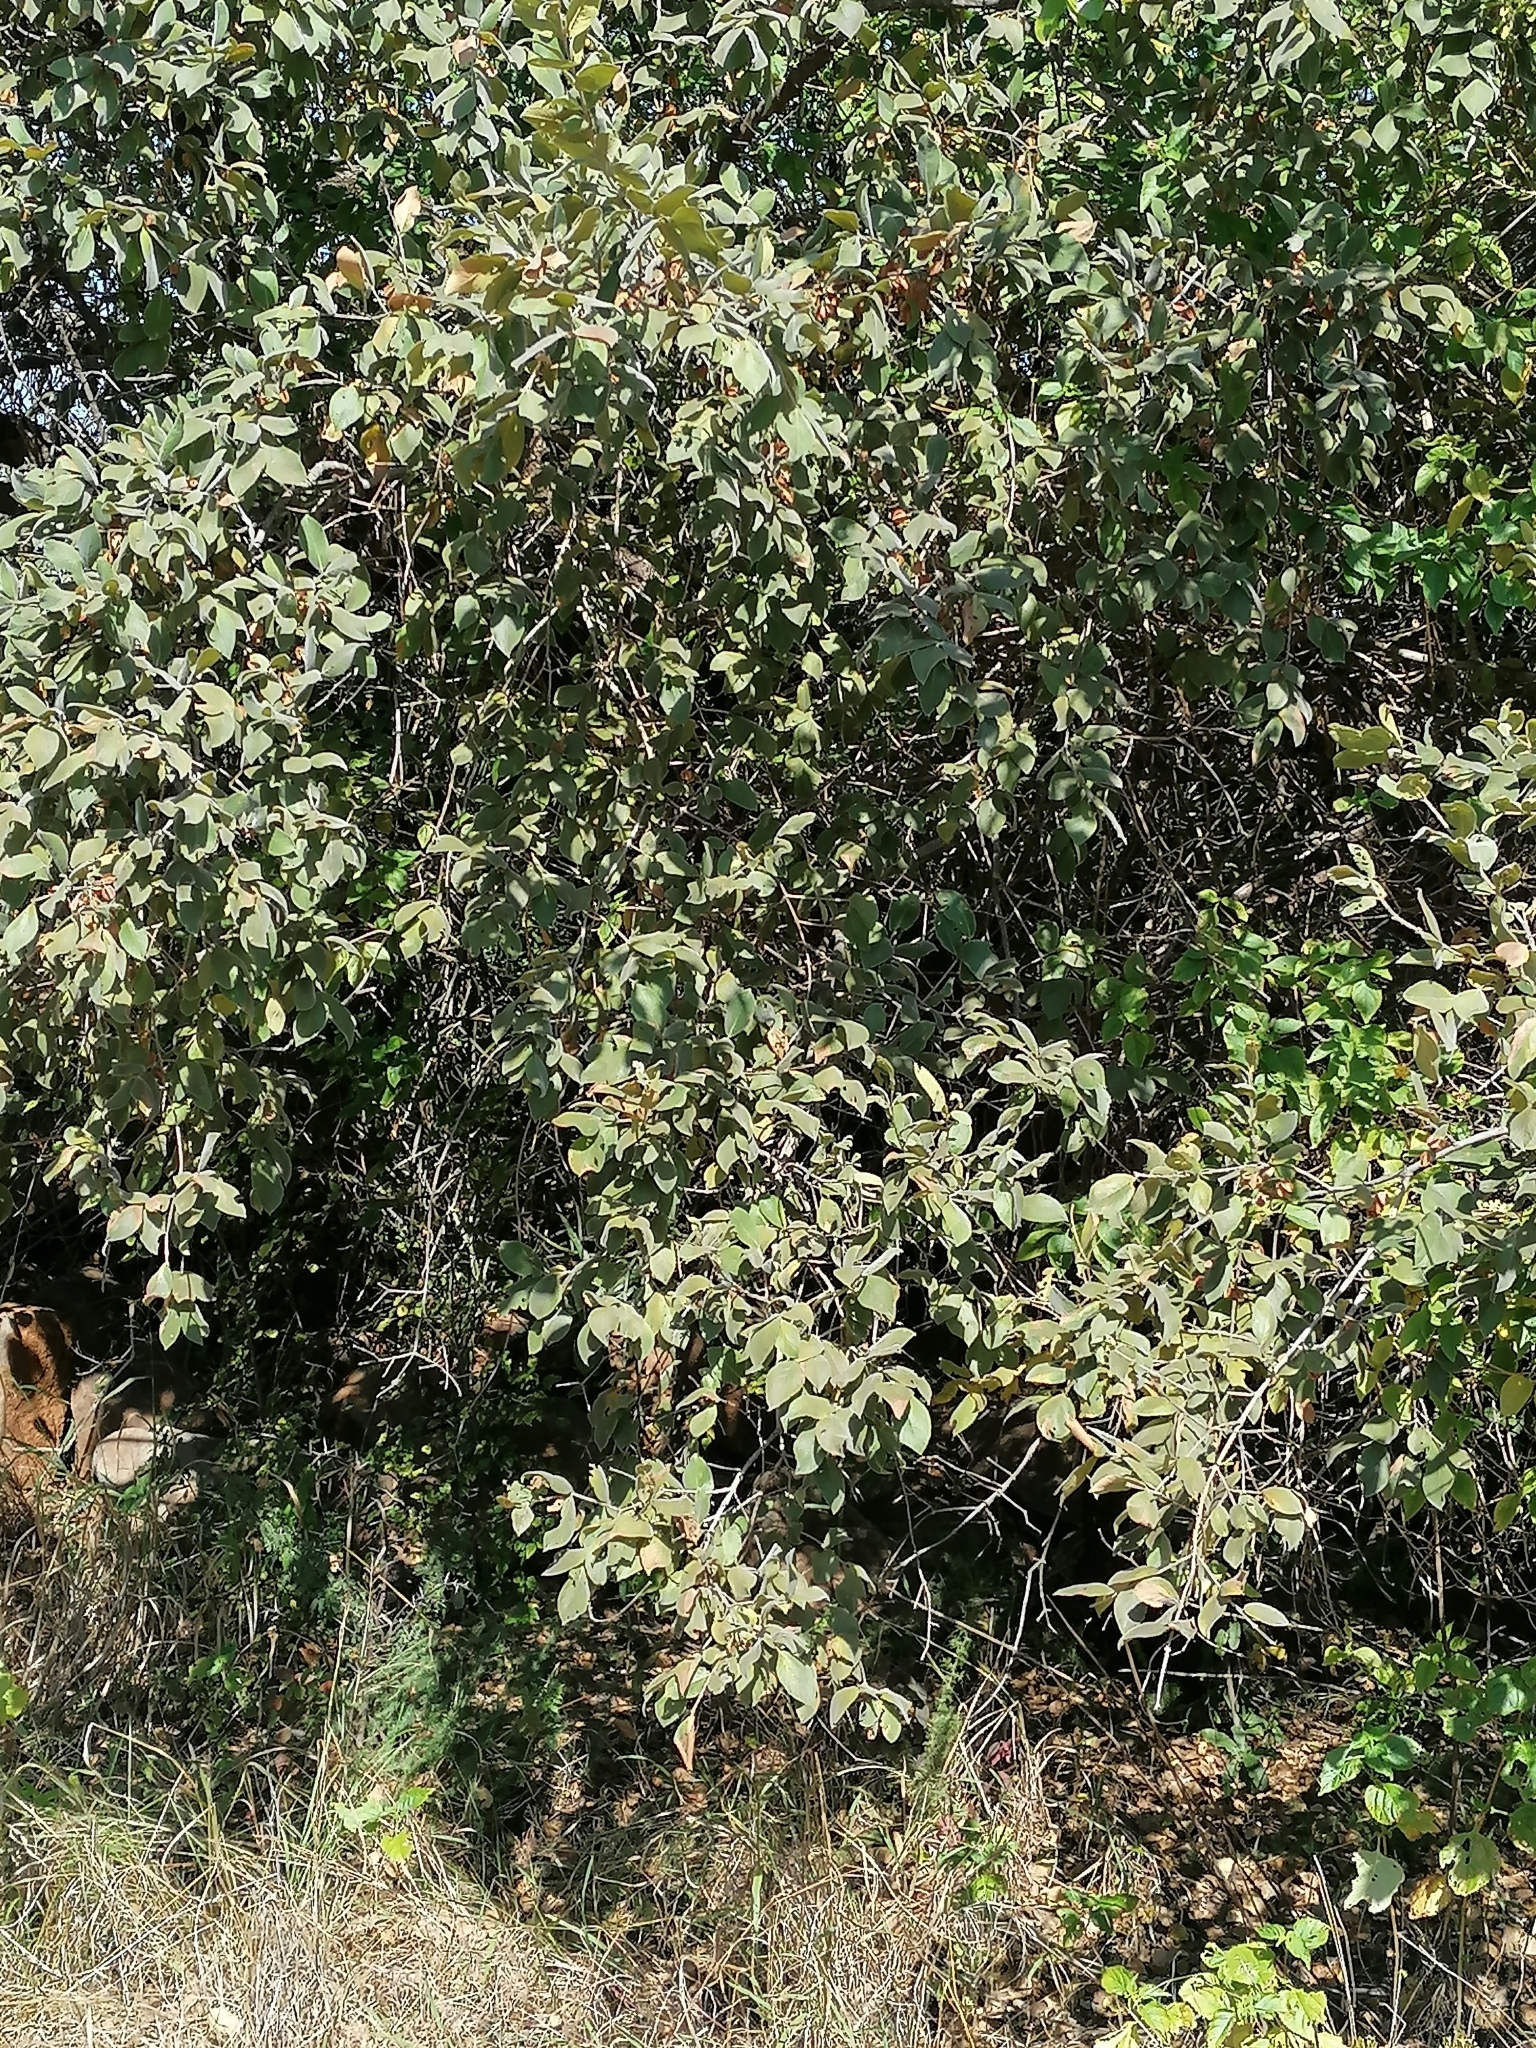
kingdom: Plantae
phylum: Tracheophyta
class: Magnoliopsida
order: Myrtales
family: Combretaceae
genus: Combretum
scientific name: Combretum molle
